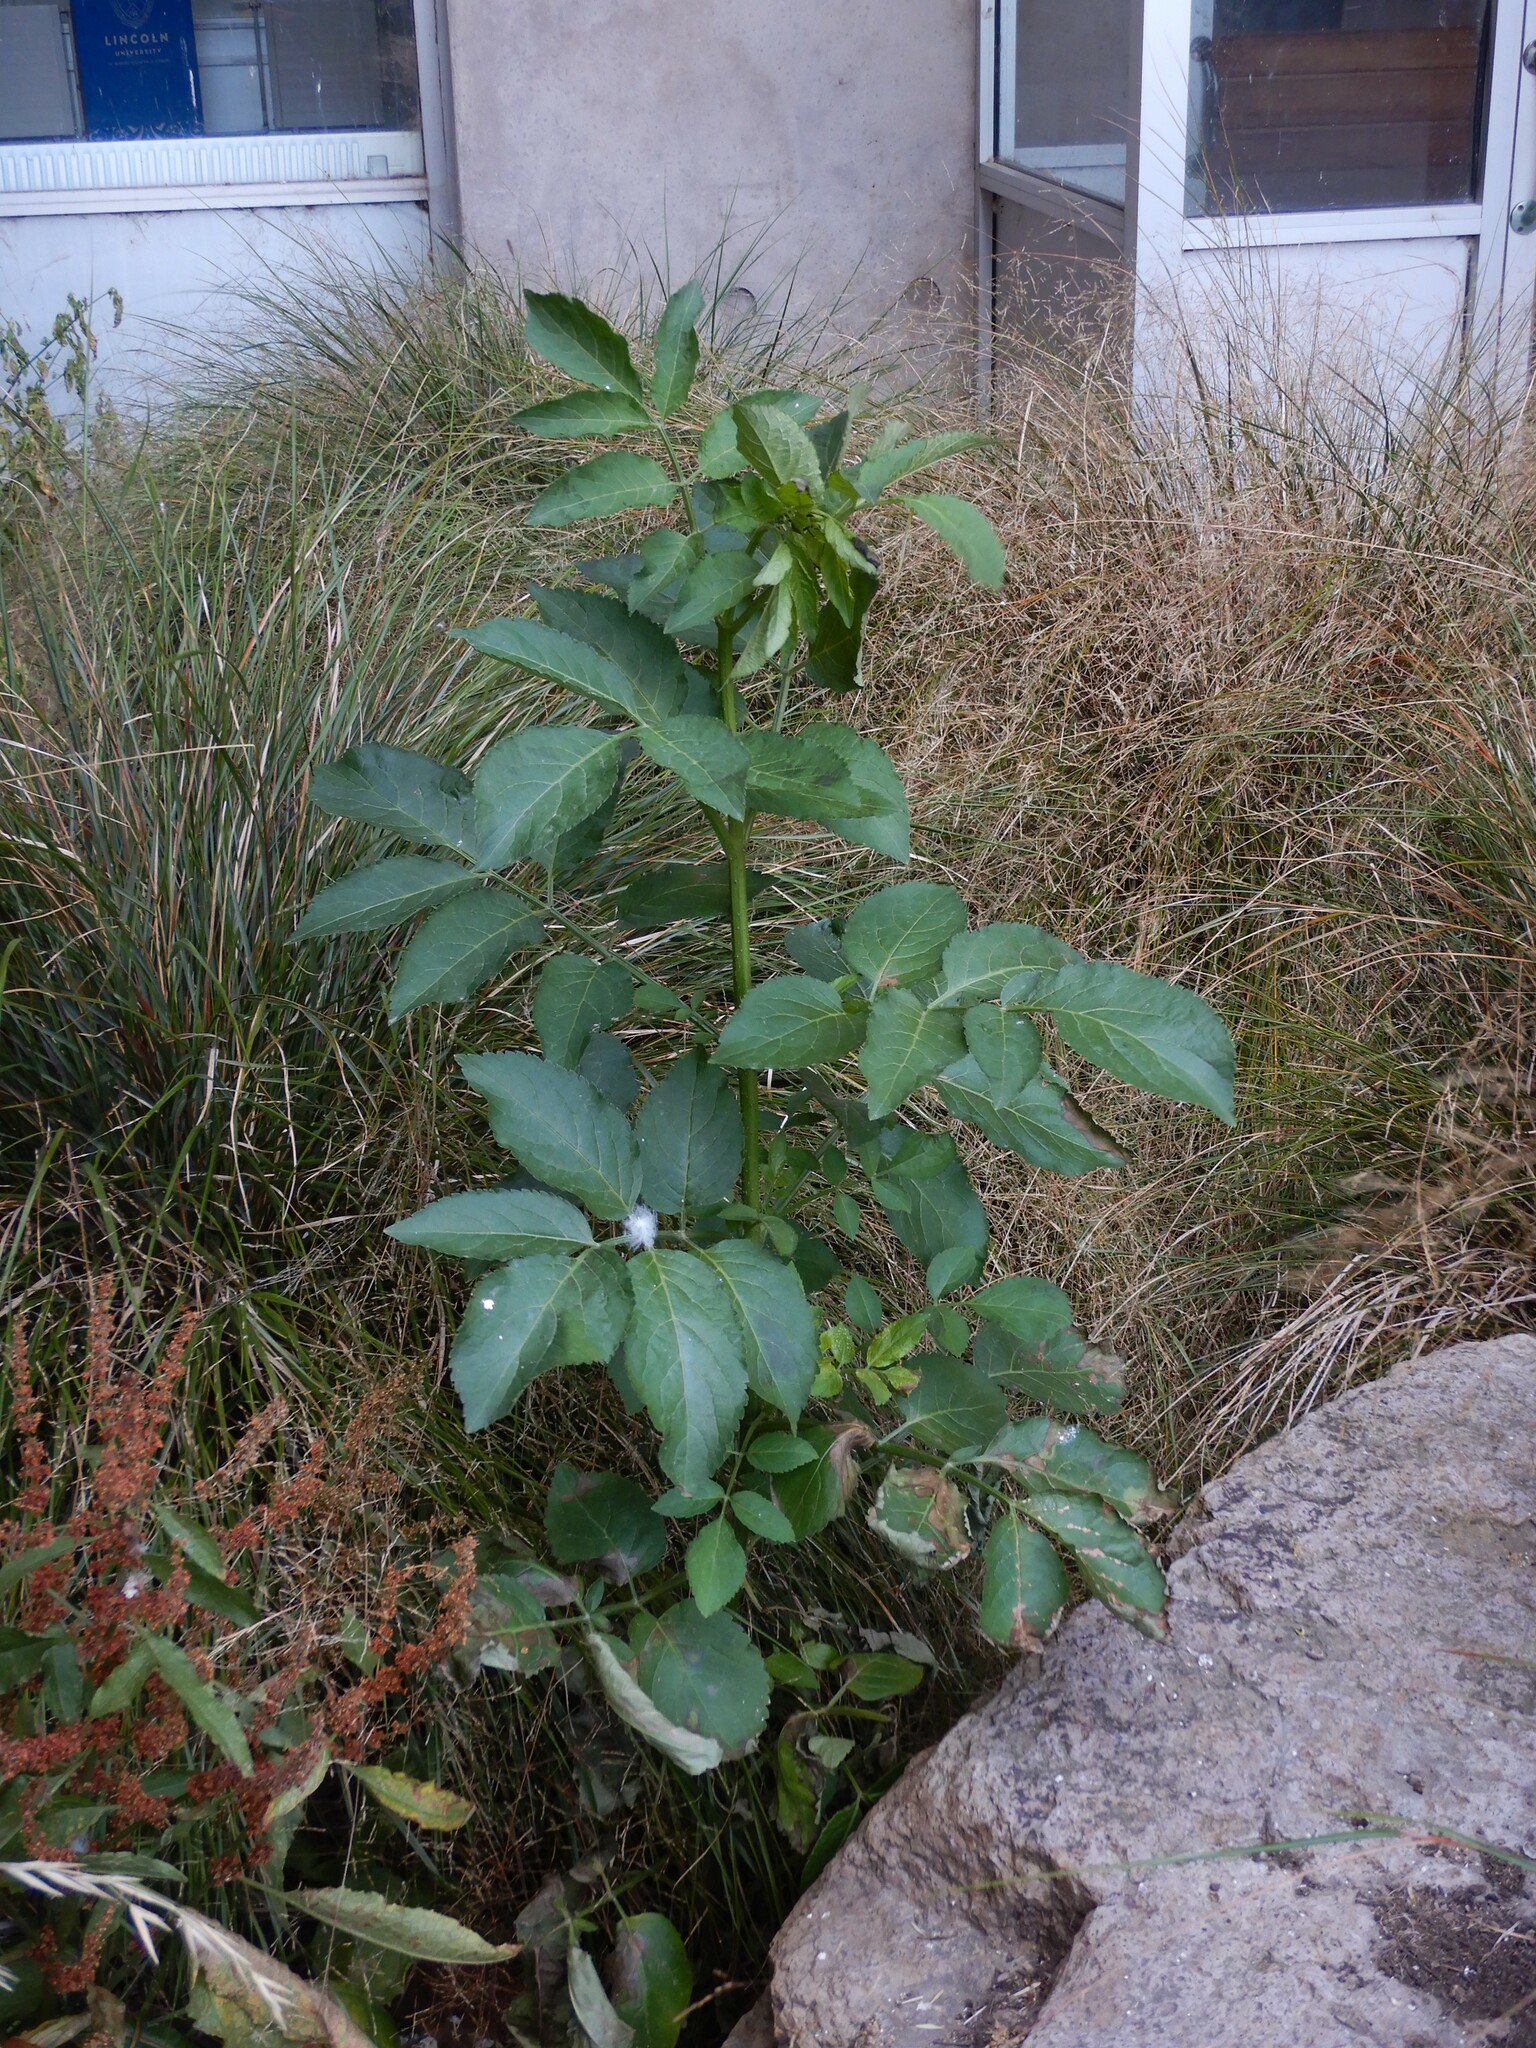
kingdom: Plantae
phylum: Tracheophyta
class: Magnoliopsida
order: Dipsacales
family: Viburnaceae
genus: Sambucus
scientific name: Sambucus nigra
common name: Elder
